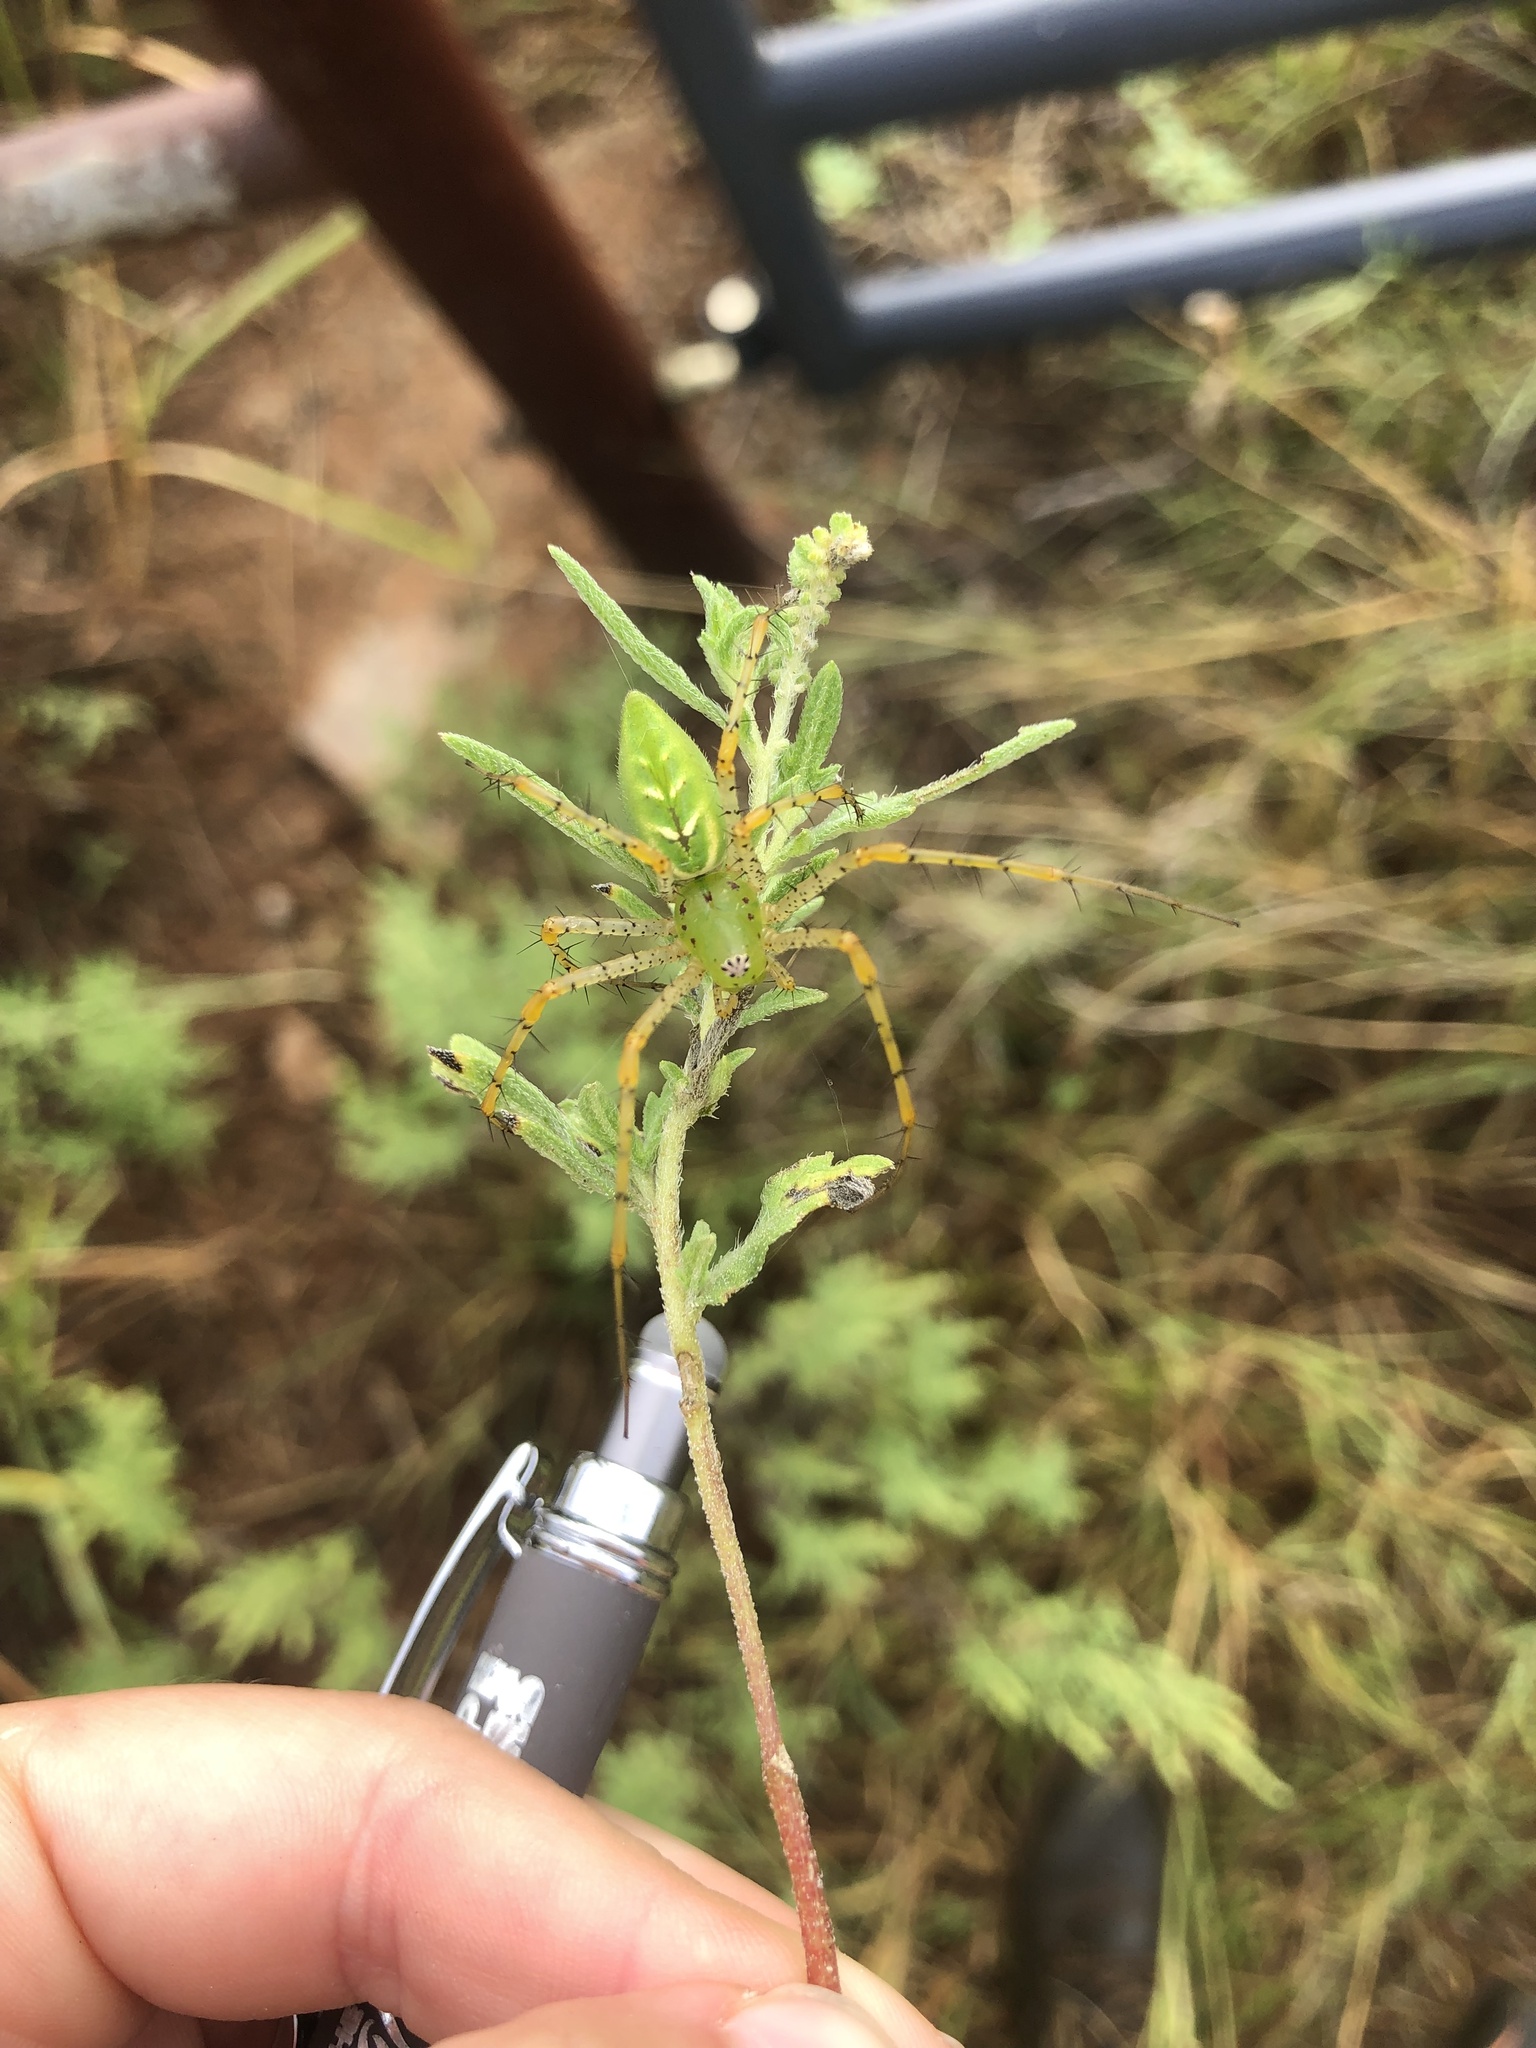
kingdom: Animalia
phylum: Arthropoda
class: Arachnida
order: Araneae
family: Oxyopidae
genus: Peucetia
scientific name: Peucetia viridans
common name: Lynx spiders
